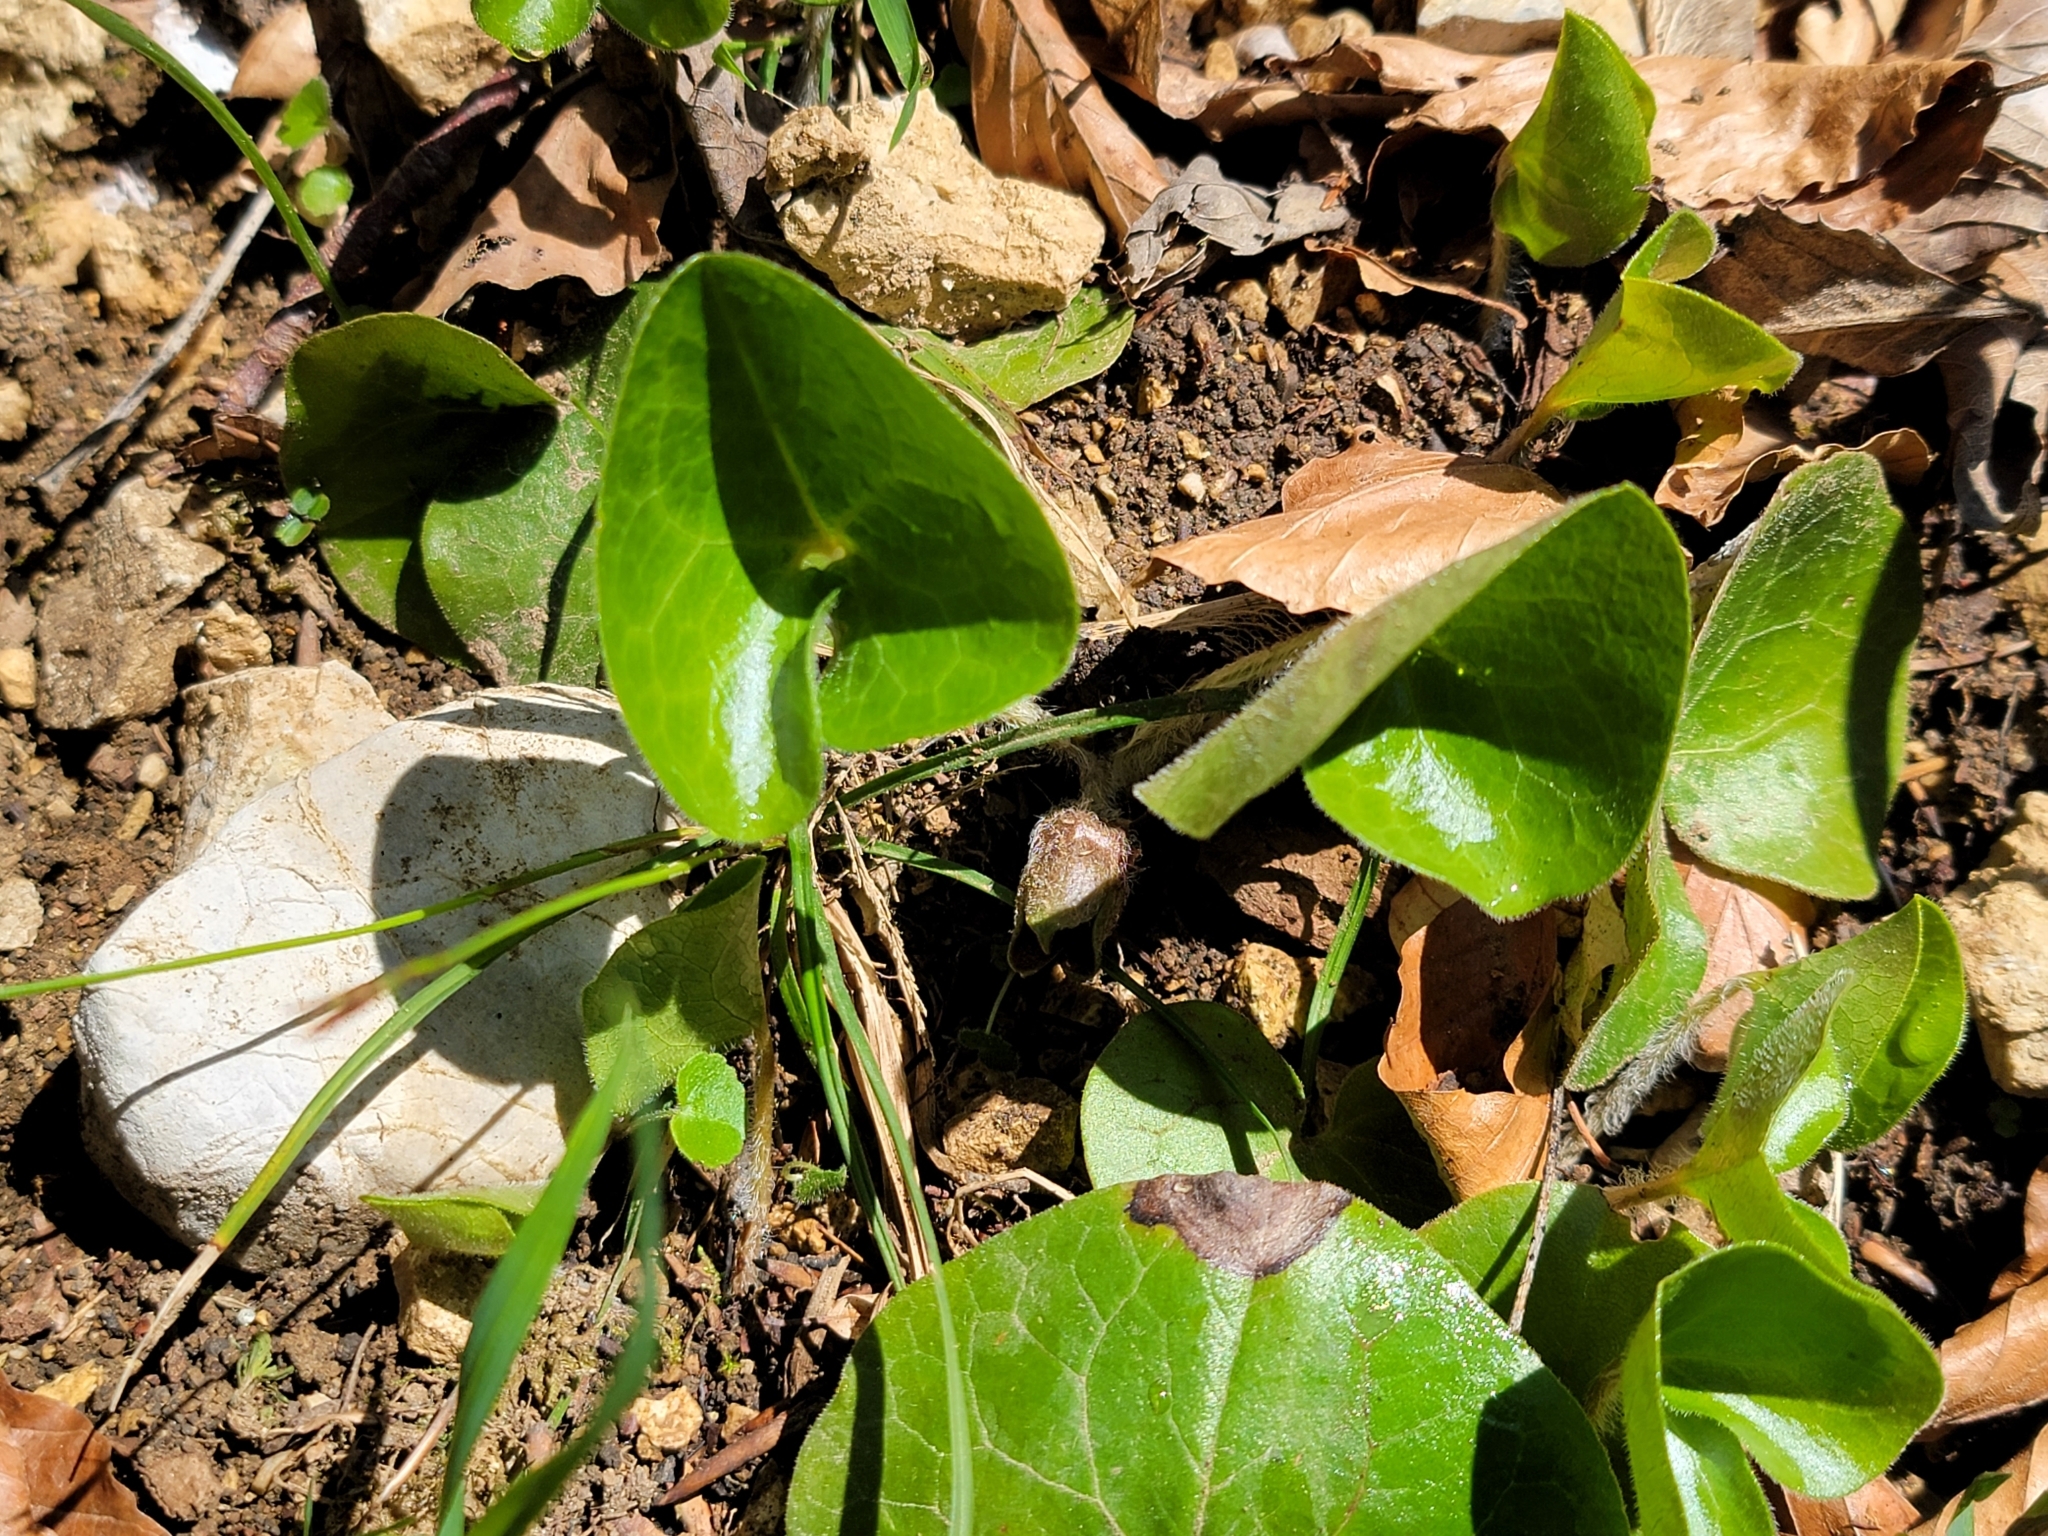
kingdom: Plantae
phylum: Tracheophyta
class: Magnoliopsida
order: Piperales
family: Aristolochiaceae
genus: Asarum
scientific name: Asarum europaeum
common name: Asarabacca
